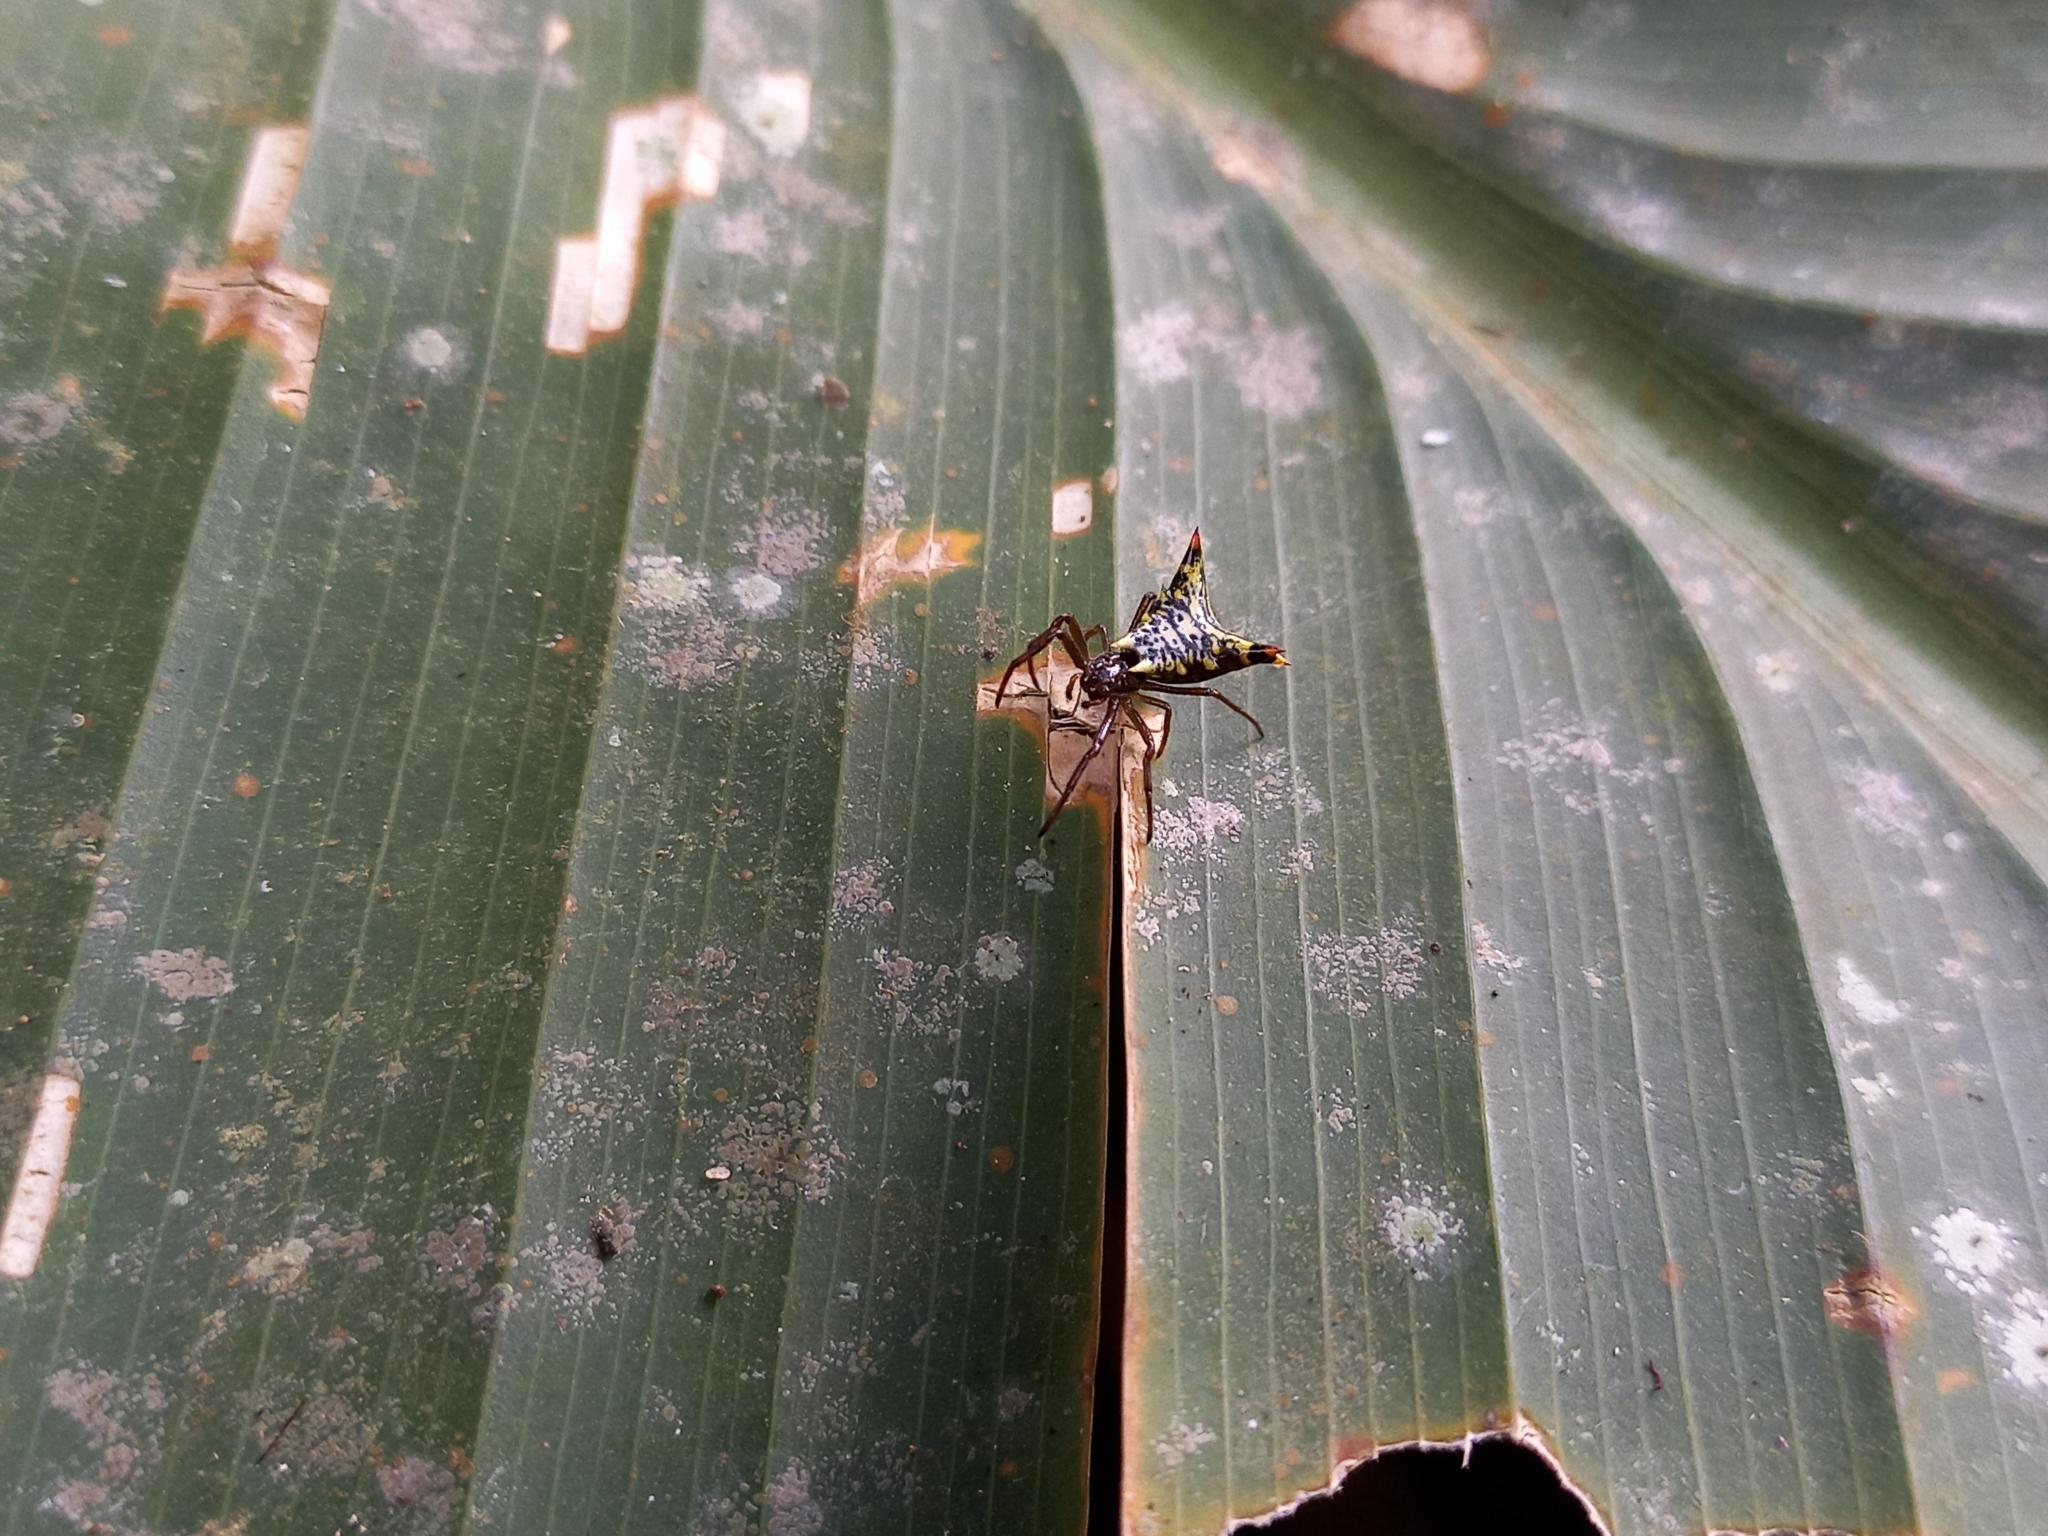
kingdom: Animalia
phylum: Arthropoda
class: Arachnida
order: Araneae
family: Araneidae
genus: Micrathena
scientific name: Micrathena lucasi
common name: Orb weavers
